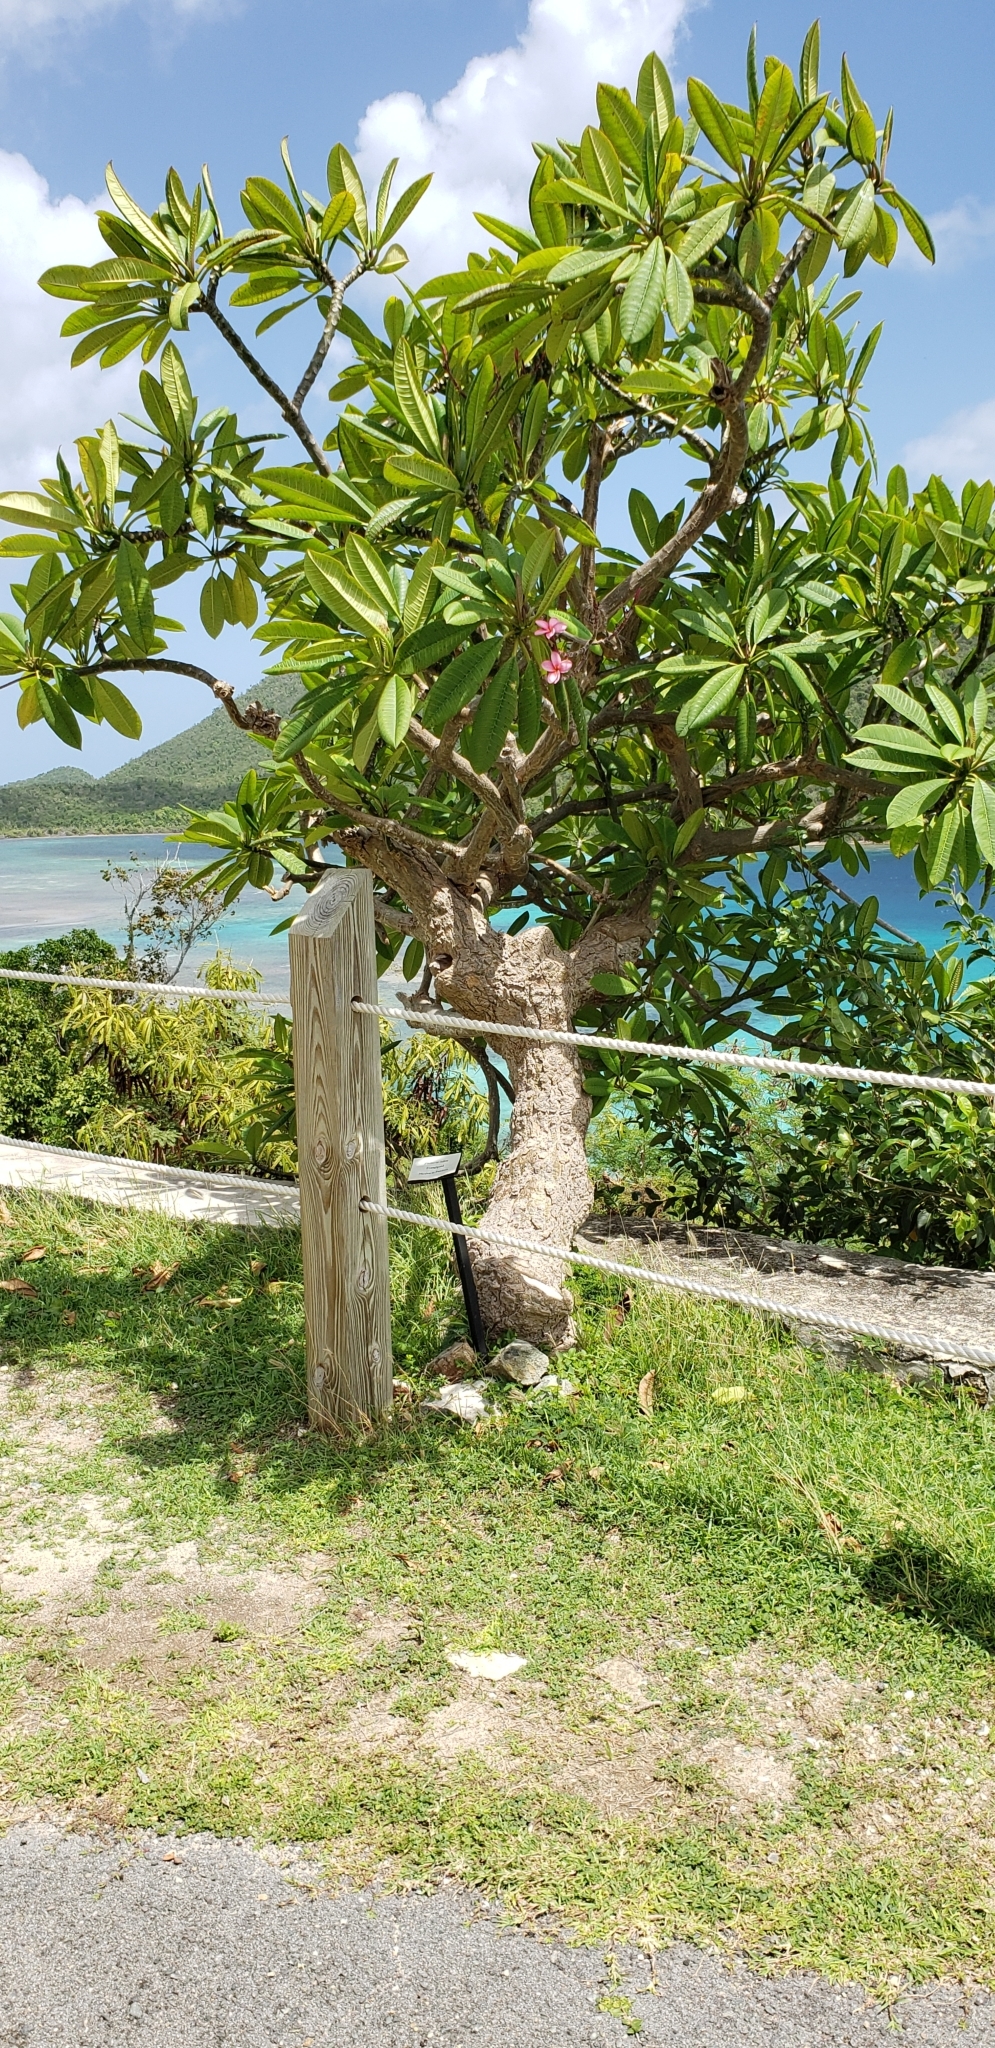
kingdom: Plantae
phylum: Tracheophyta
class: Magnoliopsida
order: Gentianales
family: Apocynaceae
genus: Plumeria
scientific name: Plumeria rubra
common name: Pagoda-tree
